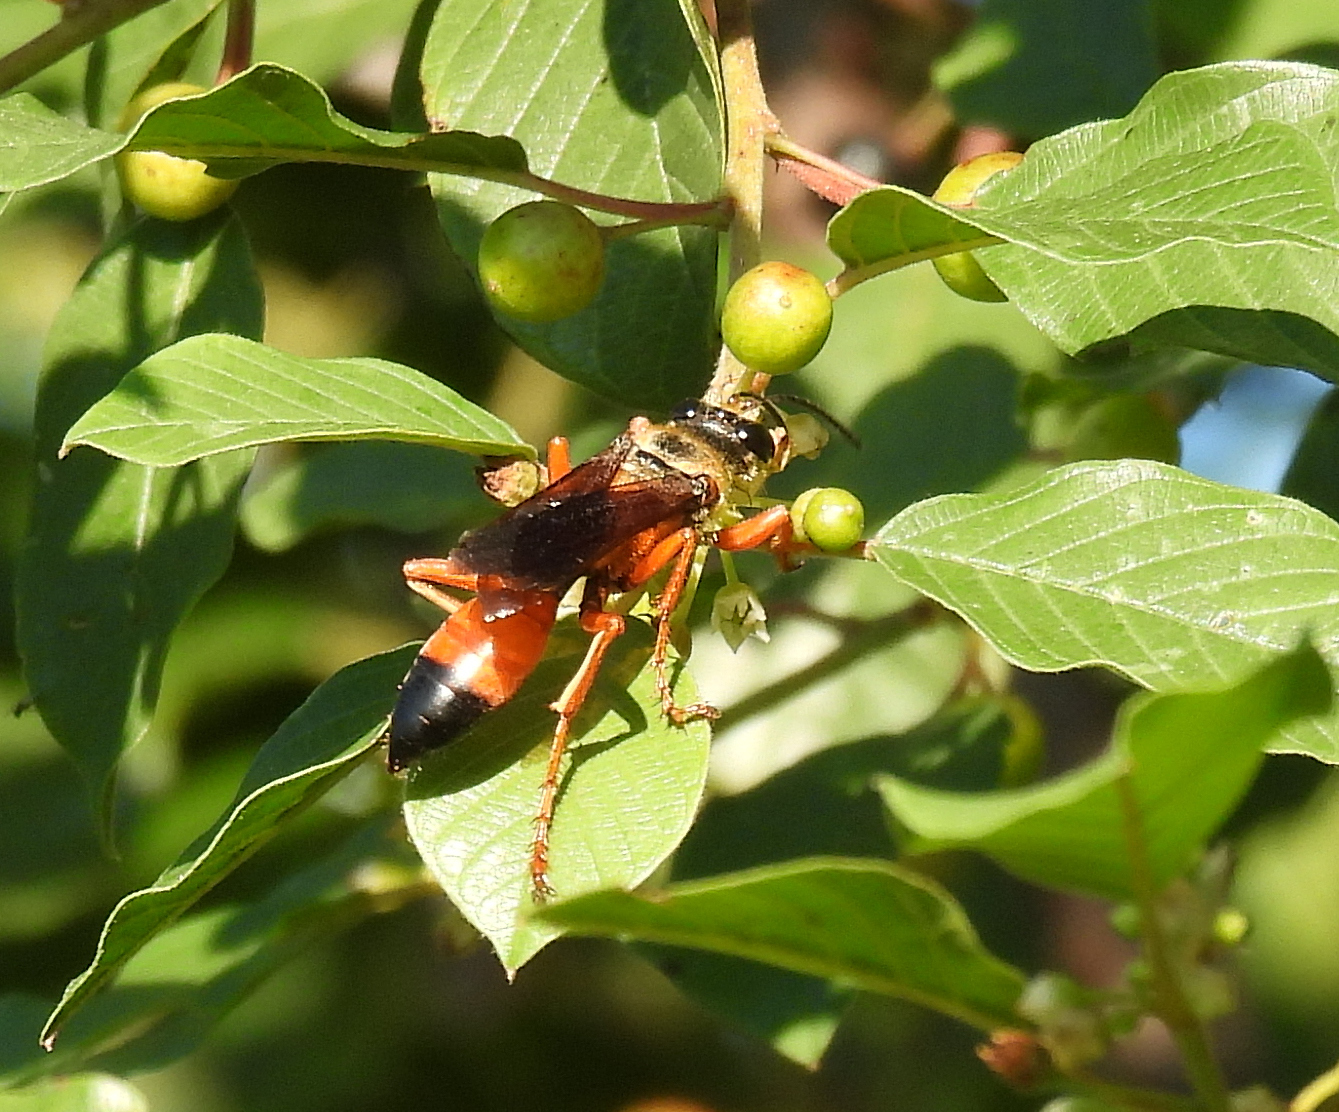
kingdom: Animalia
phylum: Arthropoda
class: Insecta
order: Hymenoptera
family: Sphecidae
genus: Sphex
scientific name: Sphex ichneumoneus
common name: Great golden digger wasp
